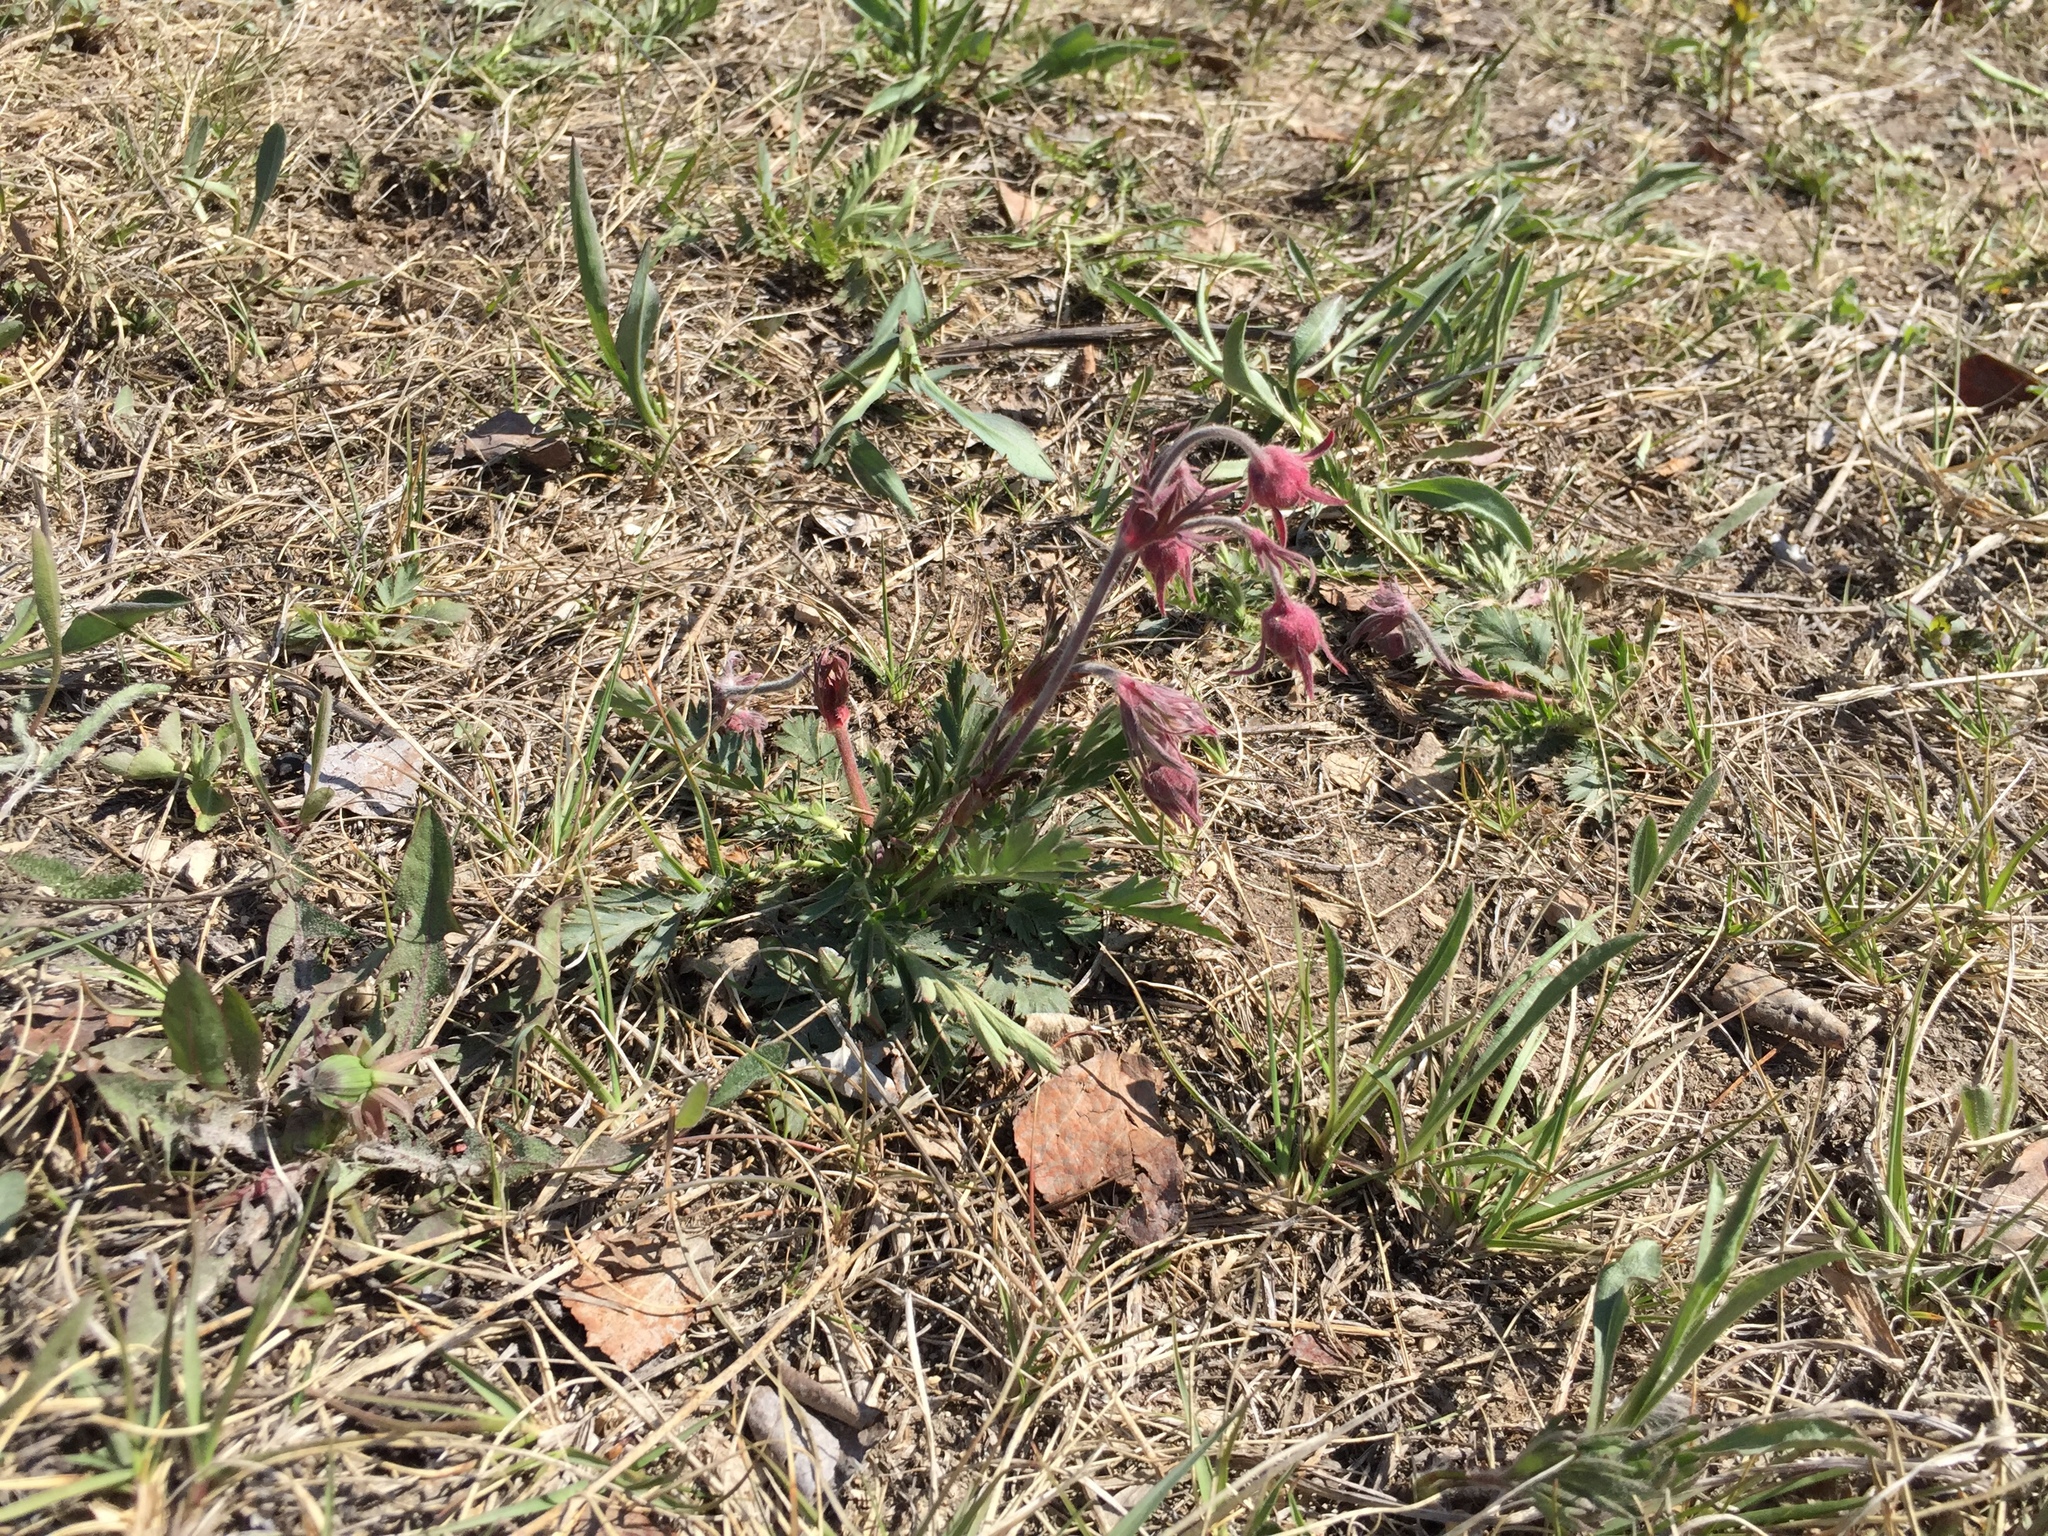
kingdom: Plantae
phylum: Tracheophyta
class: Magnoliopsida
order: Rosales
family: Rosaceae
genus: Geum
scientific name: Geum triflorum
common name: Old man's whiskers
